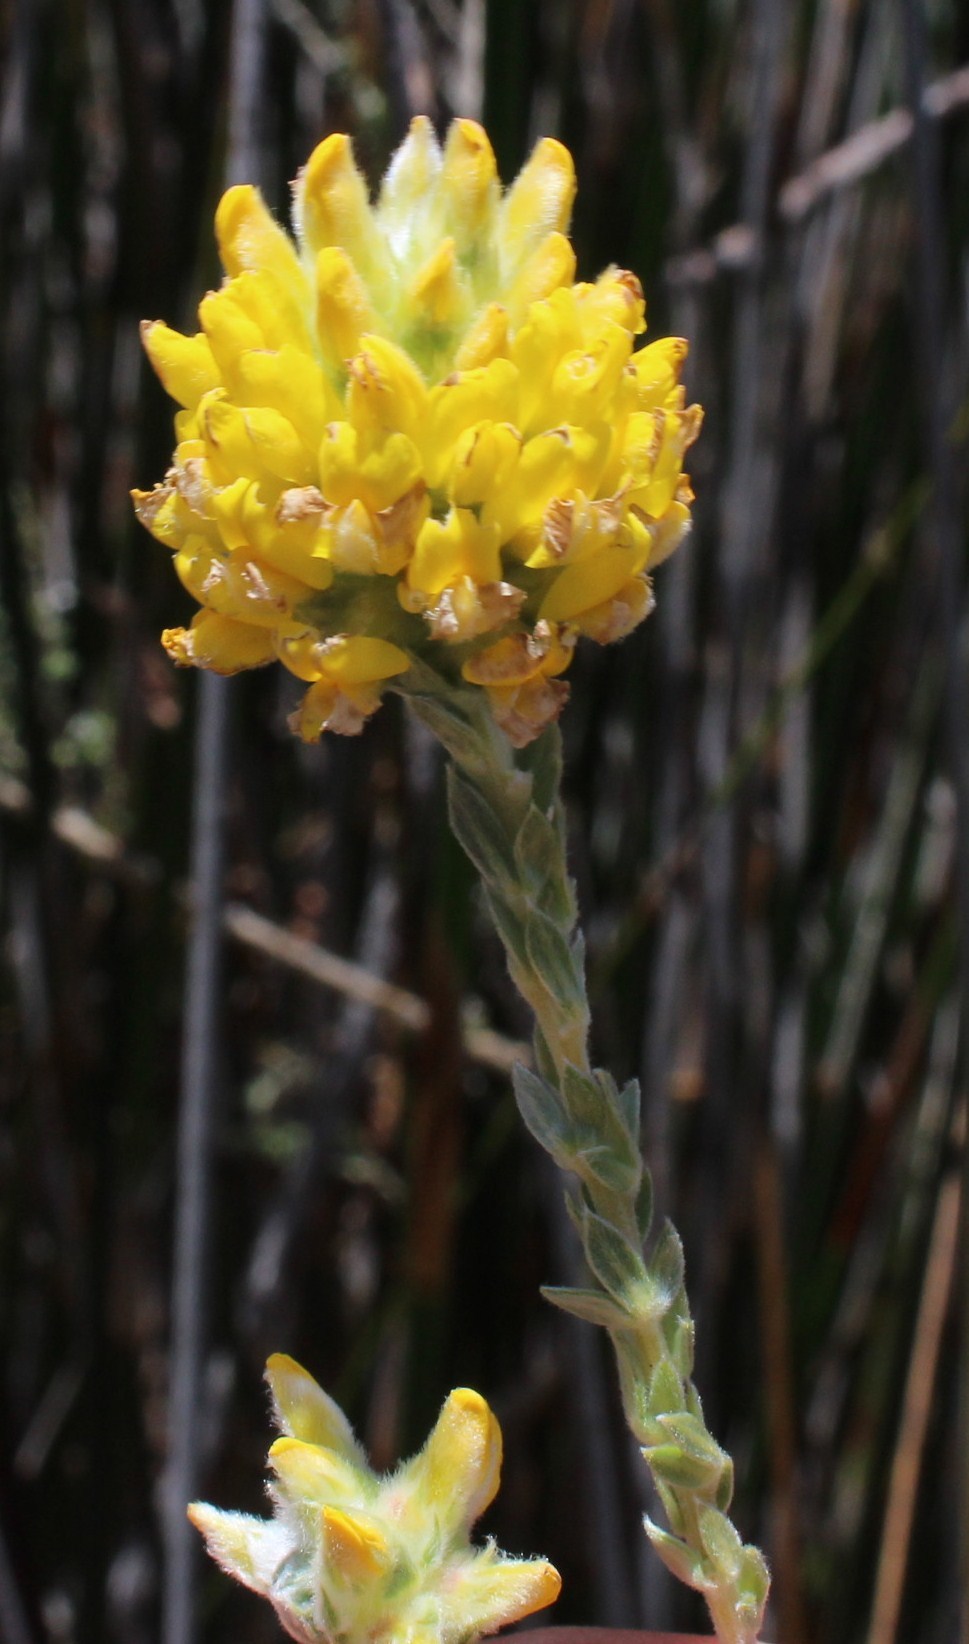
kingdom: Plantae
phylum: Tracheophyta
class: Magnoliopsida
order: Fabales
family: Fabaceae
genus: Aspalathus
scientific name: Aspalathus quinquefolia
